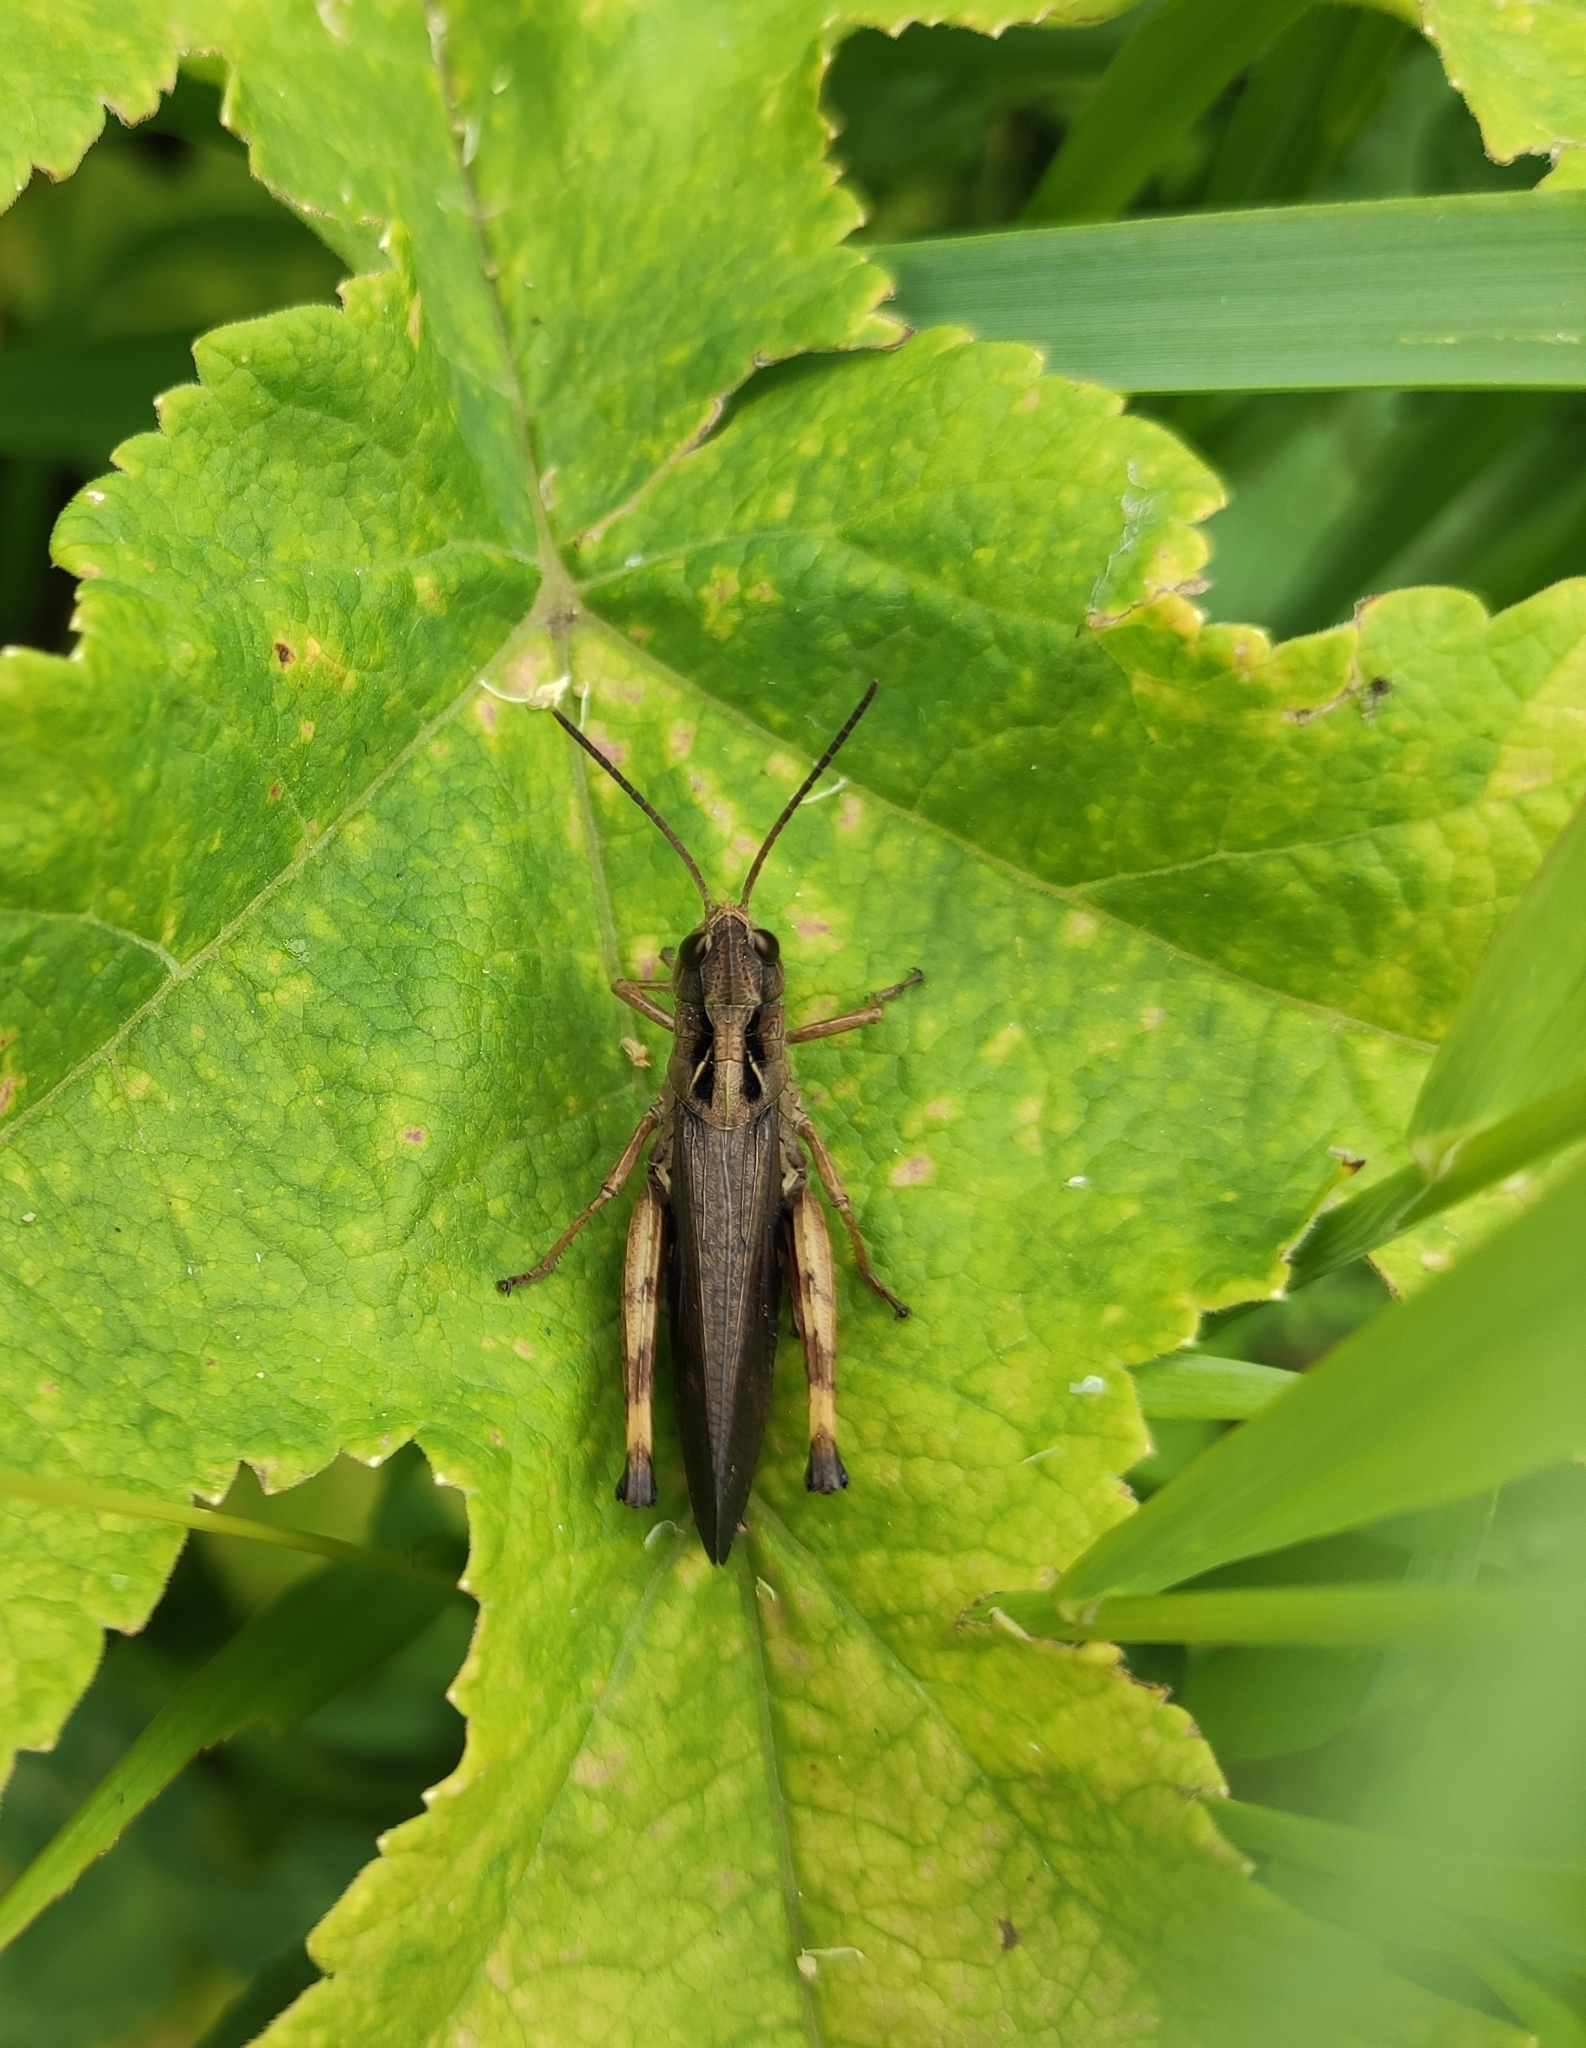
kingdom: Animalia
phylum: Arthropoda
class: Insecta
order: Orthoptera
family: Acrididae
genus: Megaulacobothrus
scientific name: Megaulacobothrus aethalinus
